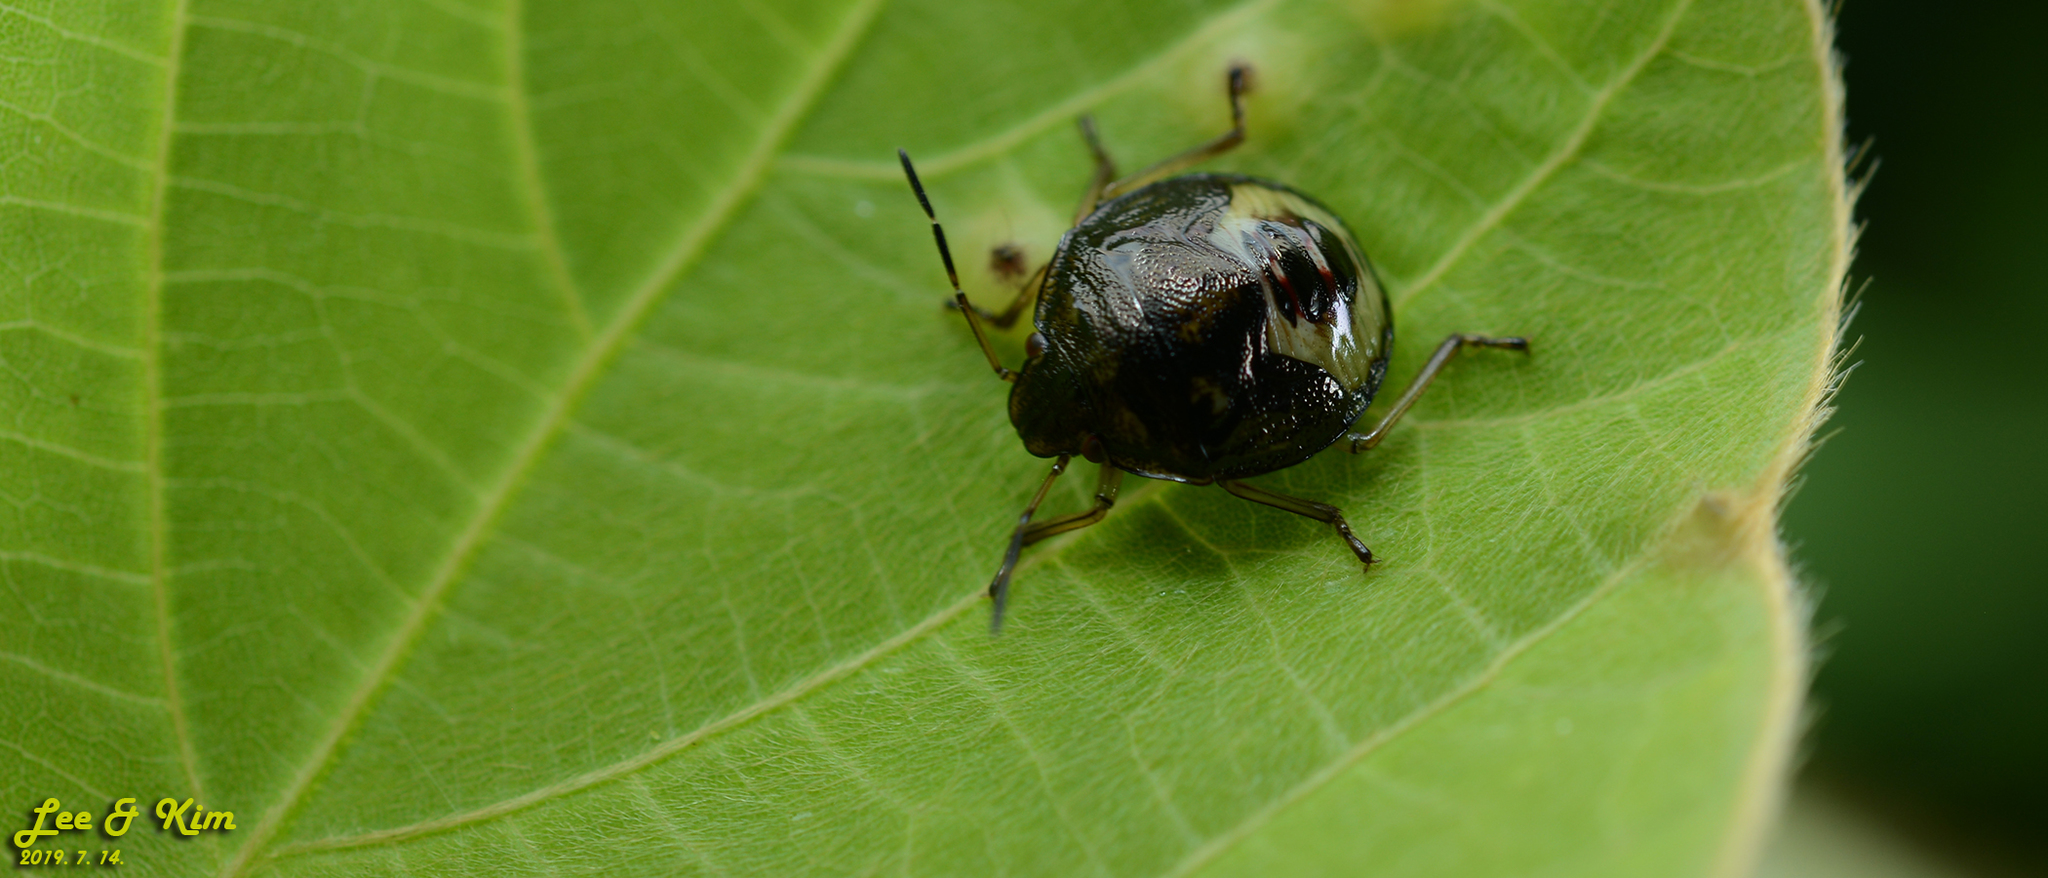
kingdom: Animalia
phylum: Arthropoda
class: Insecta
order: Hemiptera
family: Pentatomidae
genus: Plautia
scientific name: Plautia stali
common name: Stink bug
